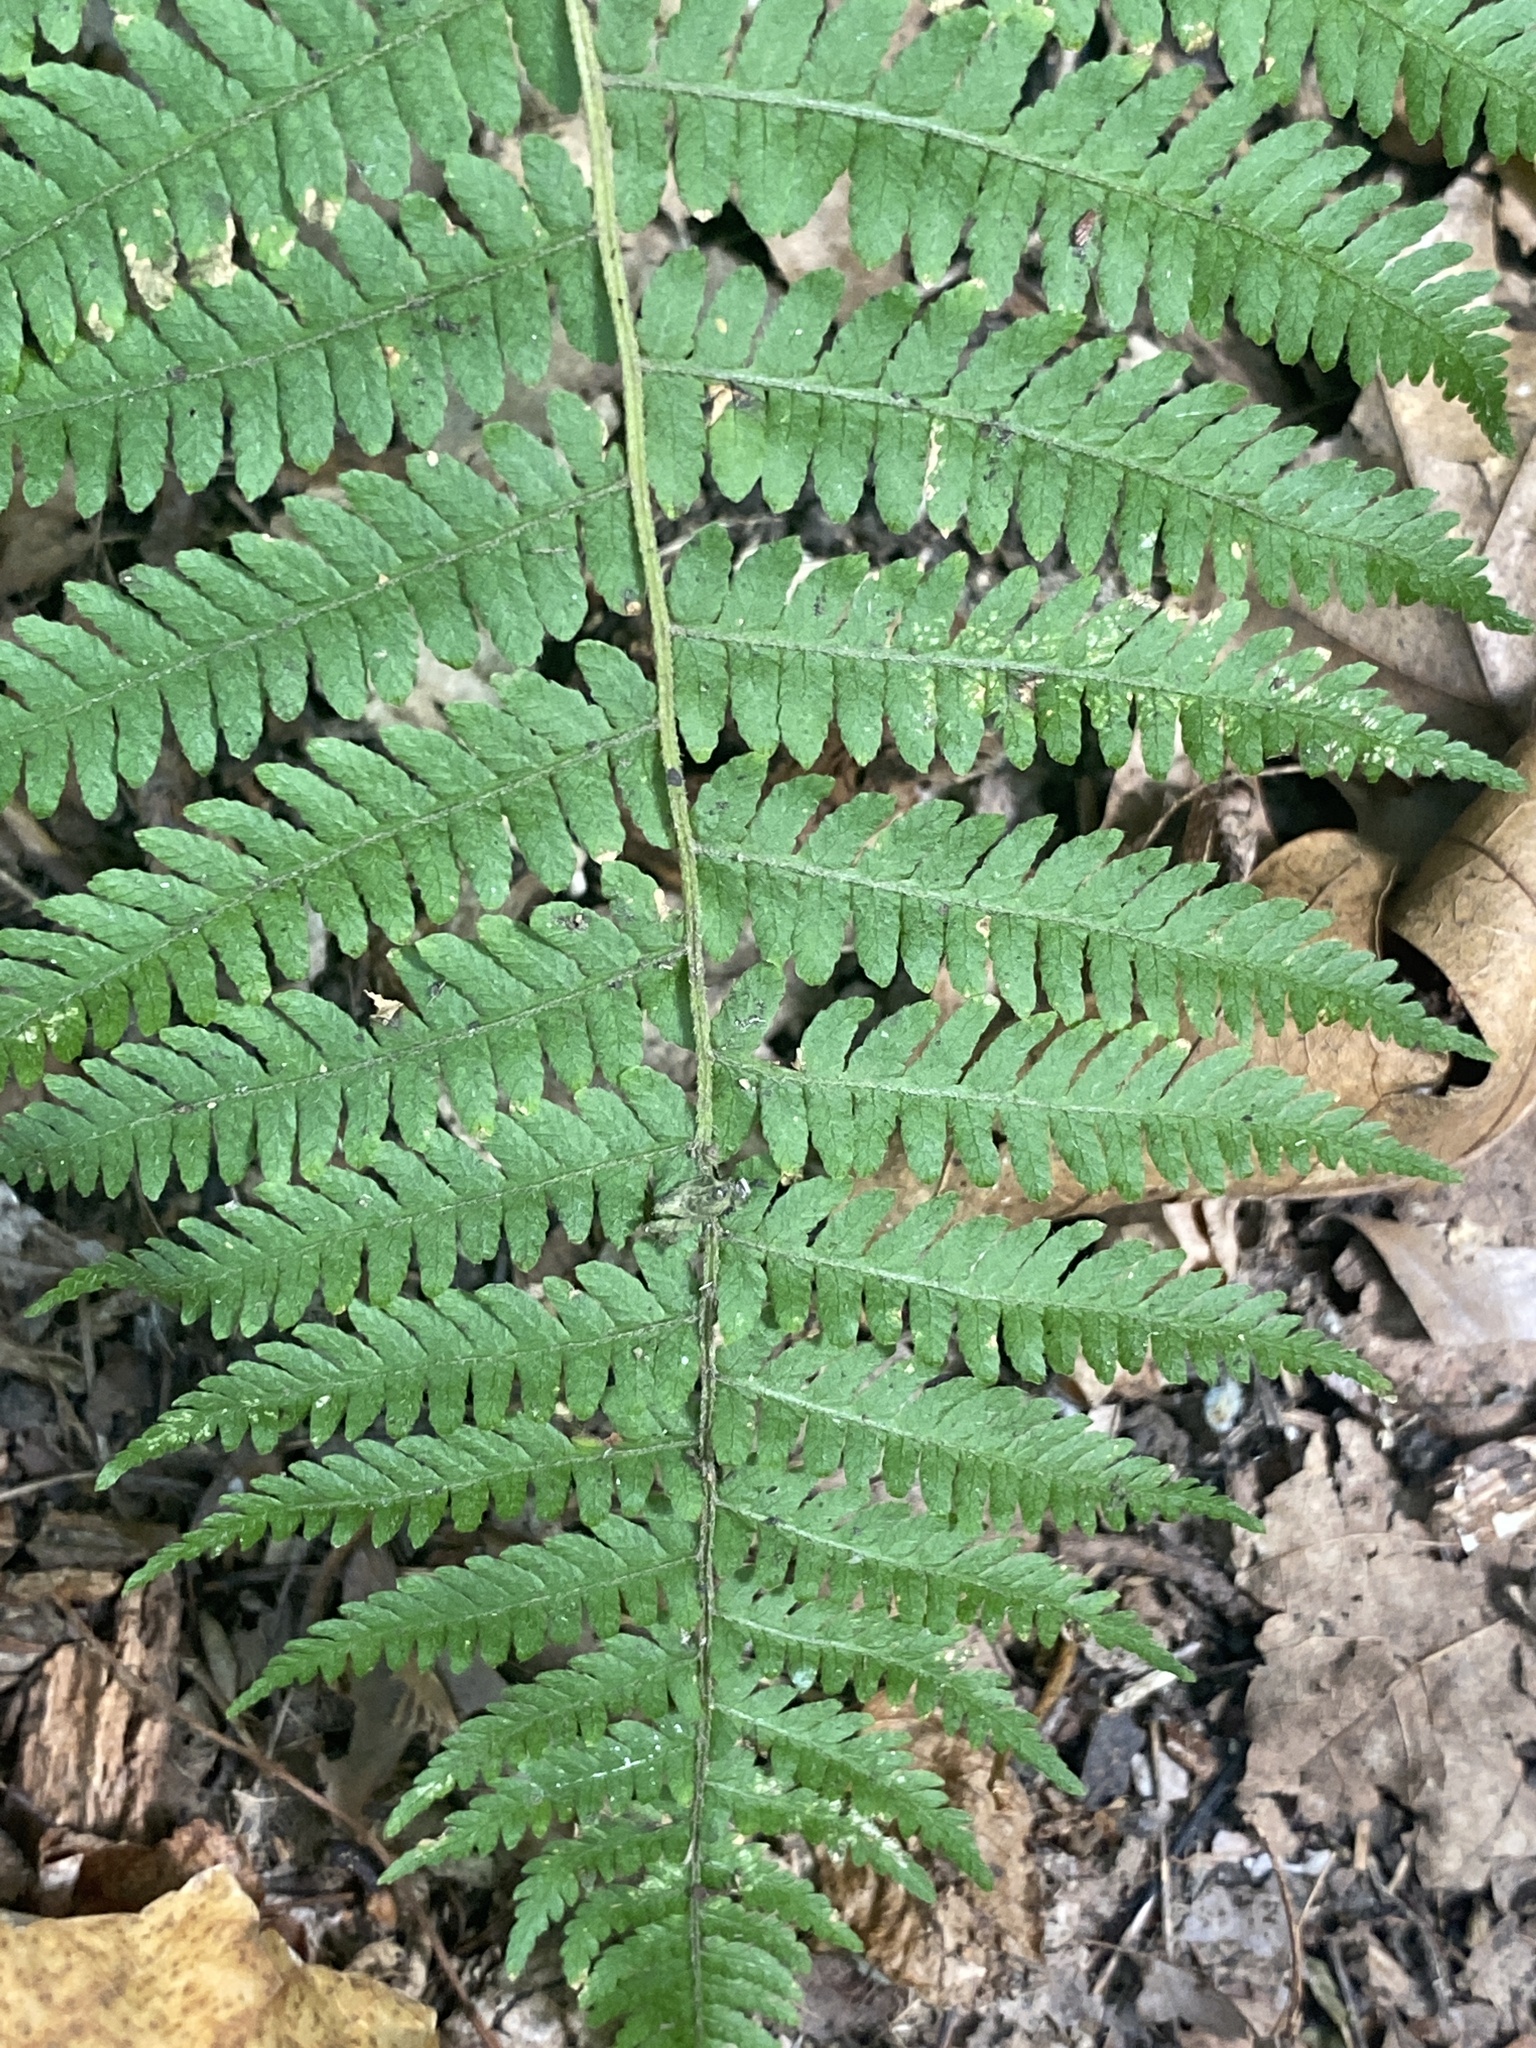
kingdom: Plantae
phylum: Tracheophyta
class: Polypodiopsida
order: Polypodiales
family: Thelypteridaceae
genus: Amauropelta
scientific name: Amauropelta noveboracensis
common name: New york fern
